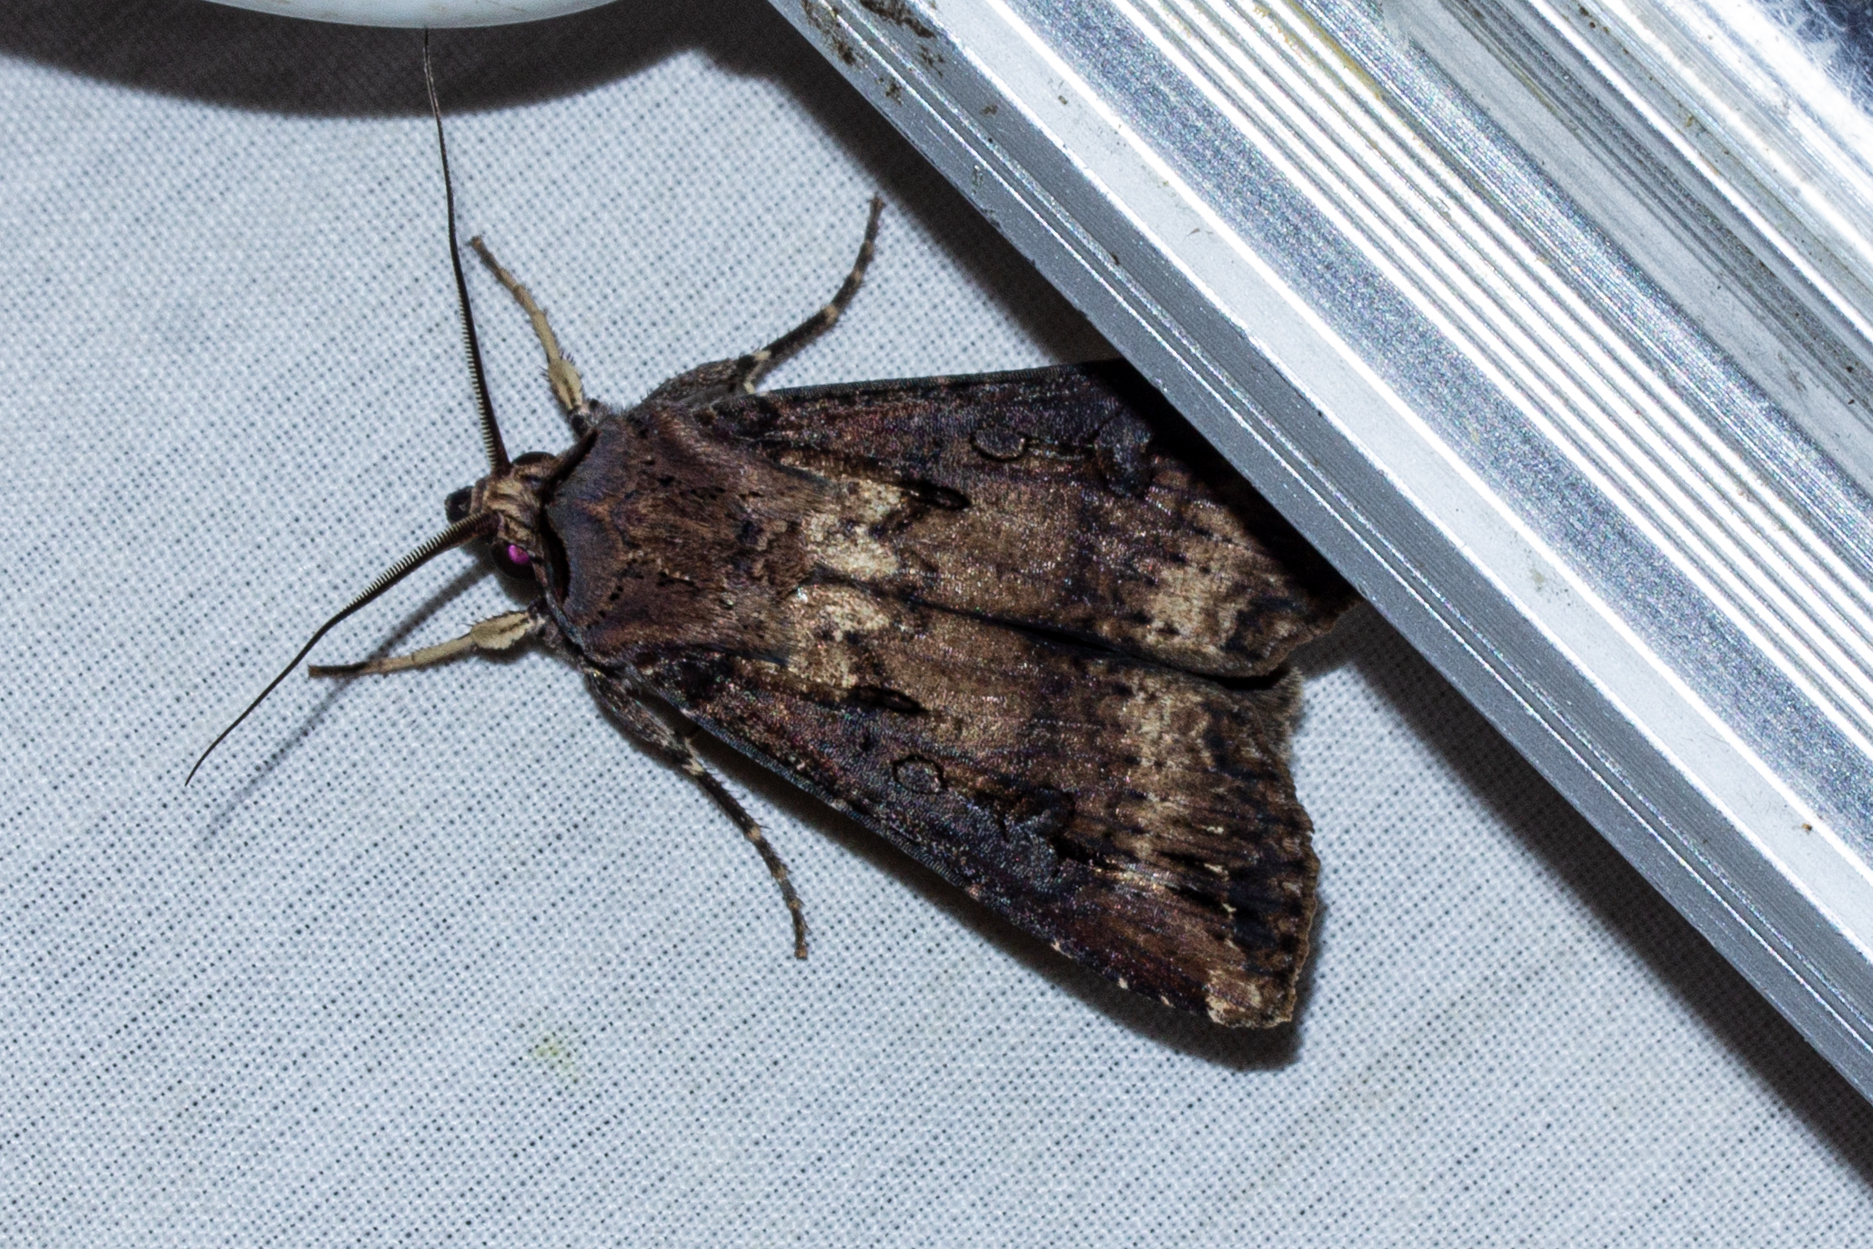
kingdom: Animalia
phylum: Arthropoda
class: Insecta
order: Lepidoptera
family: Noctuidae
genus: Agrotis
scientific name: Agrotis ipsilon
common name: Dark sword-grass
